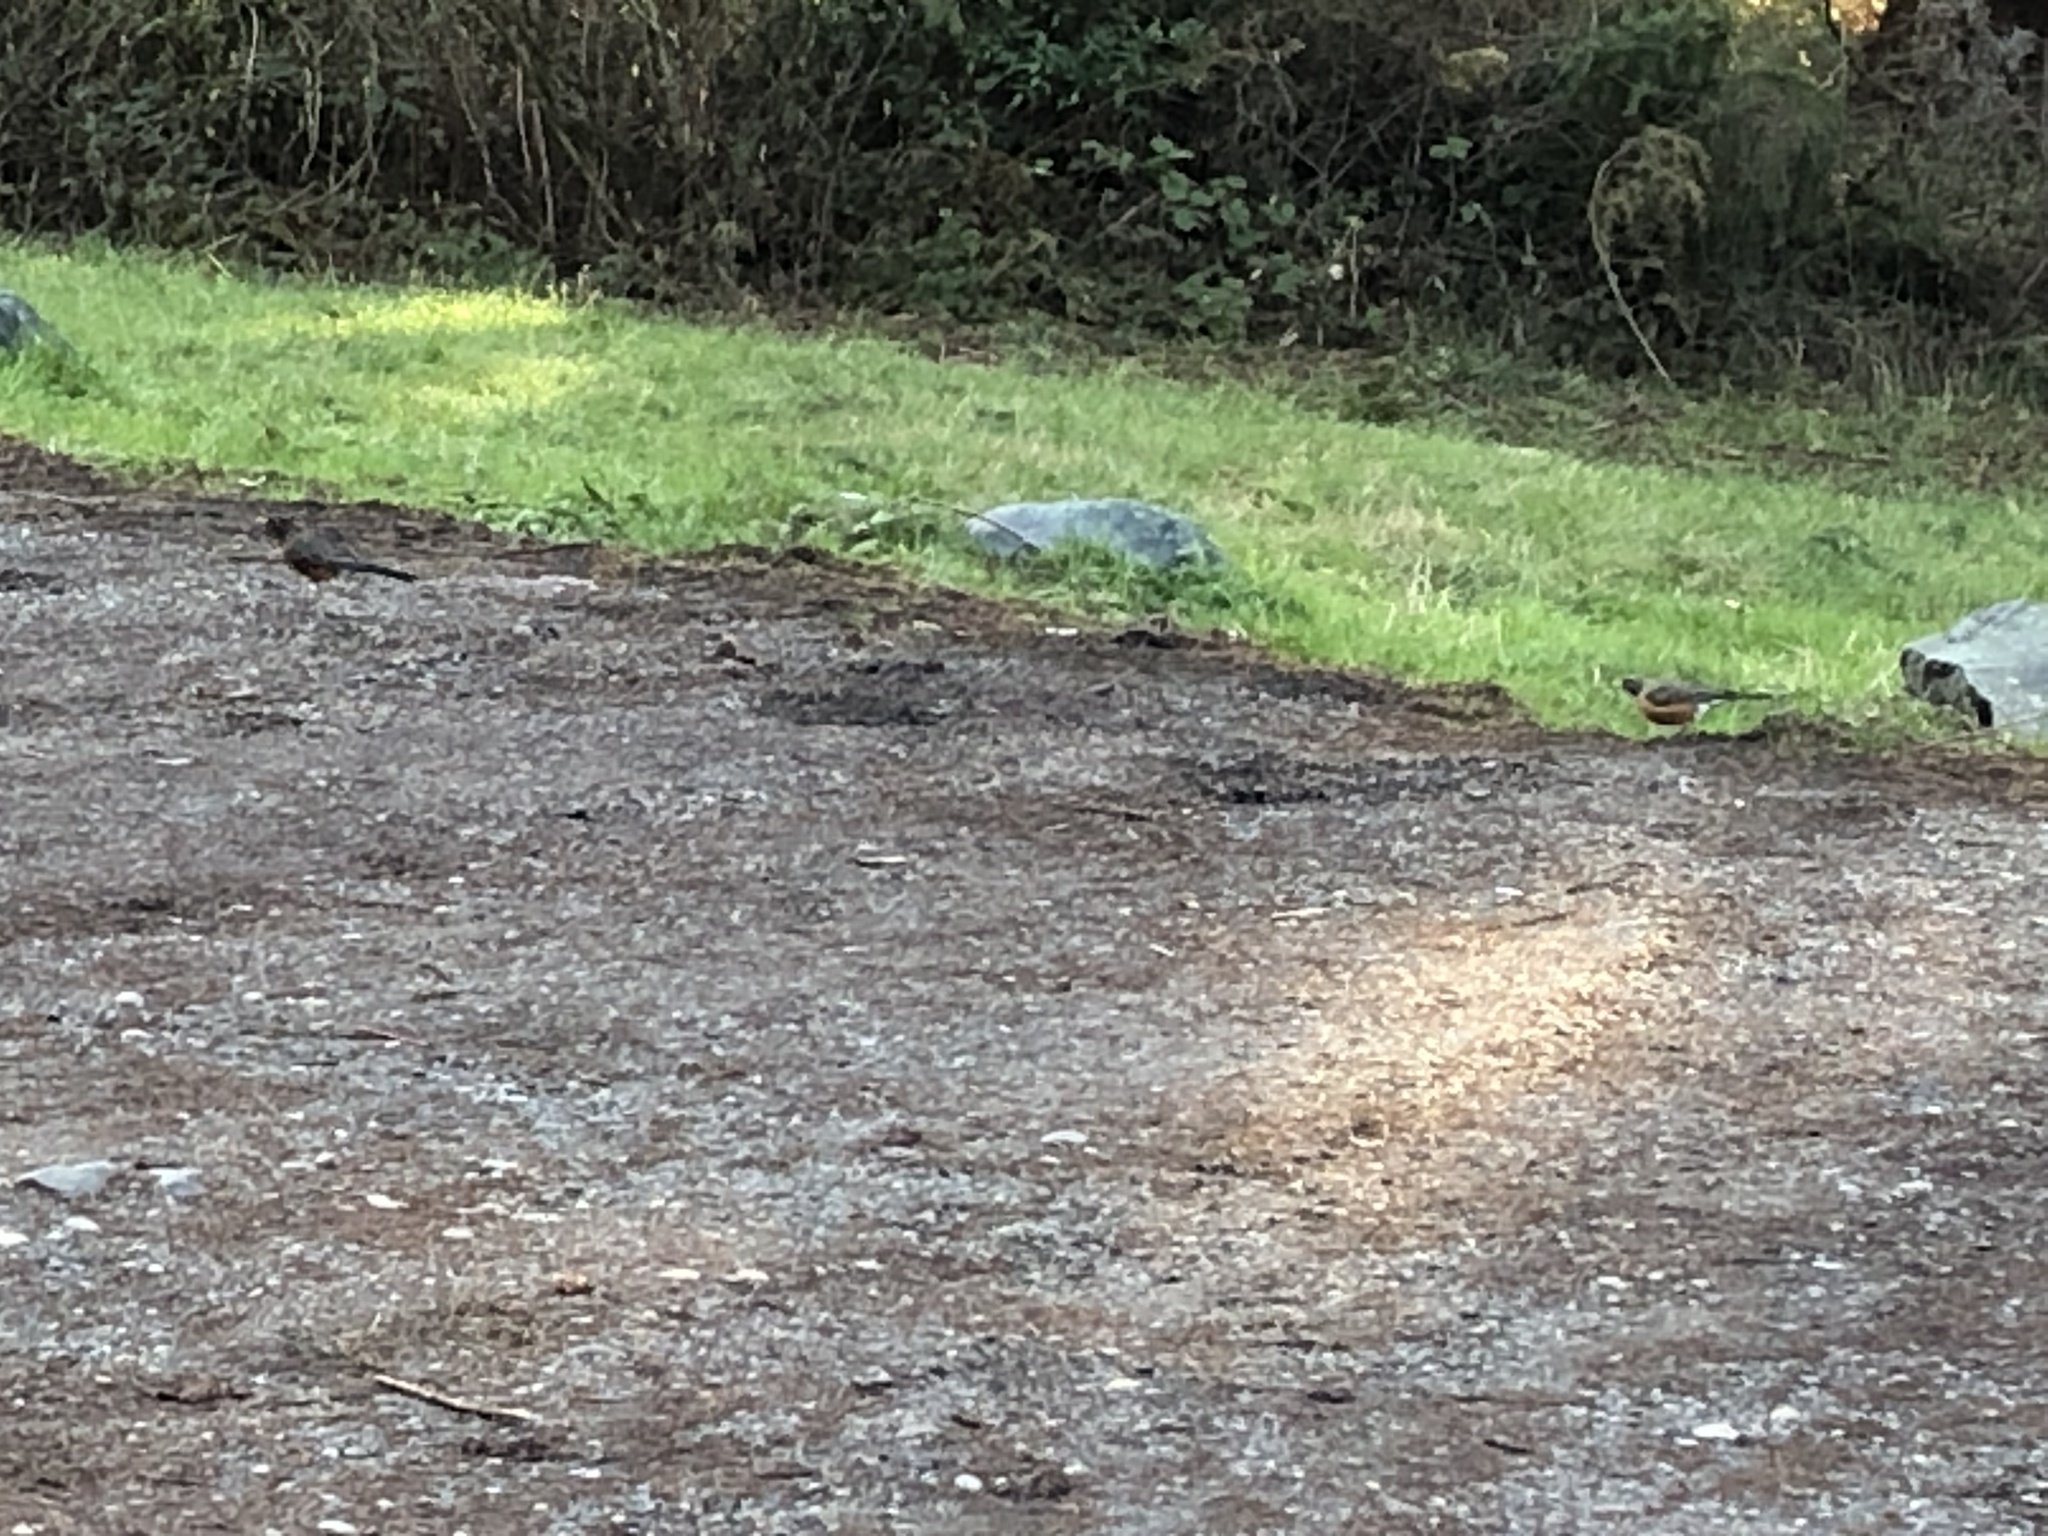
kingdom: Animalia
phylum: Chordata
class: Aves
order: Passeriformes
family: Turdidae
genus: Turdus
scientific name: Turdus migratorius
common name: American robin
